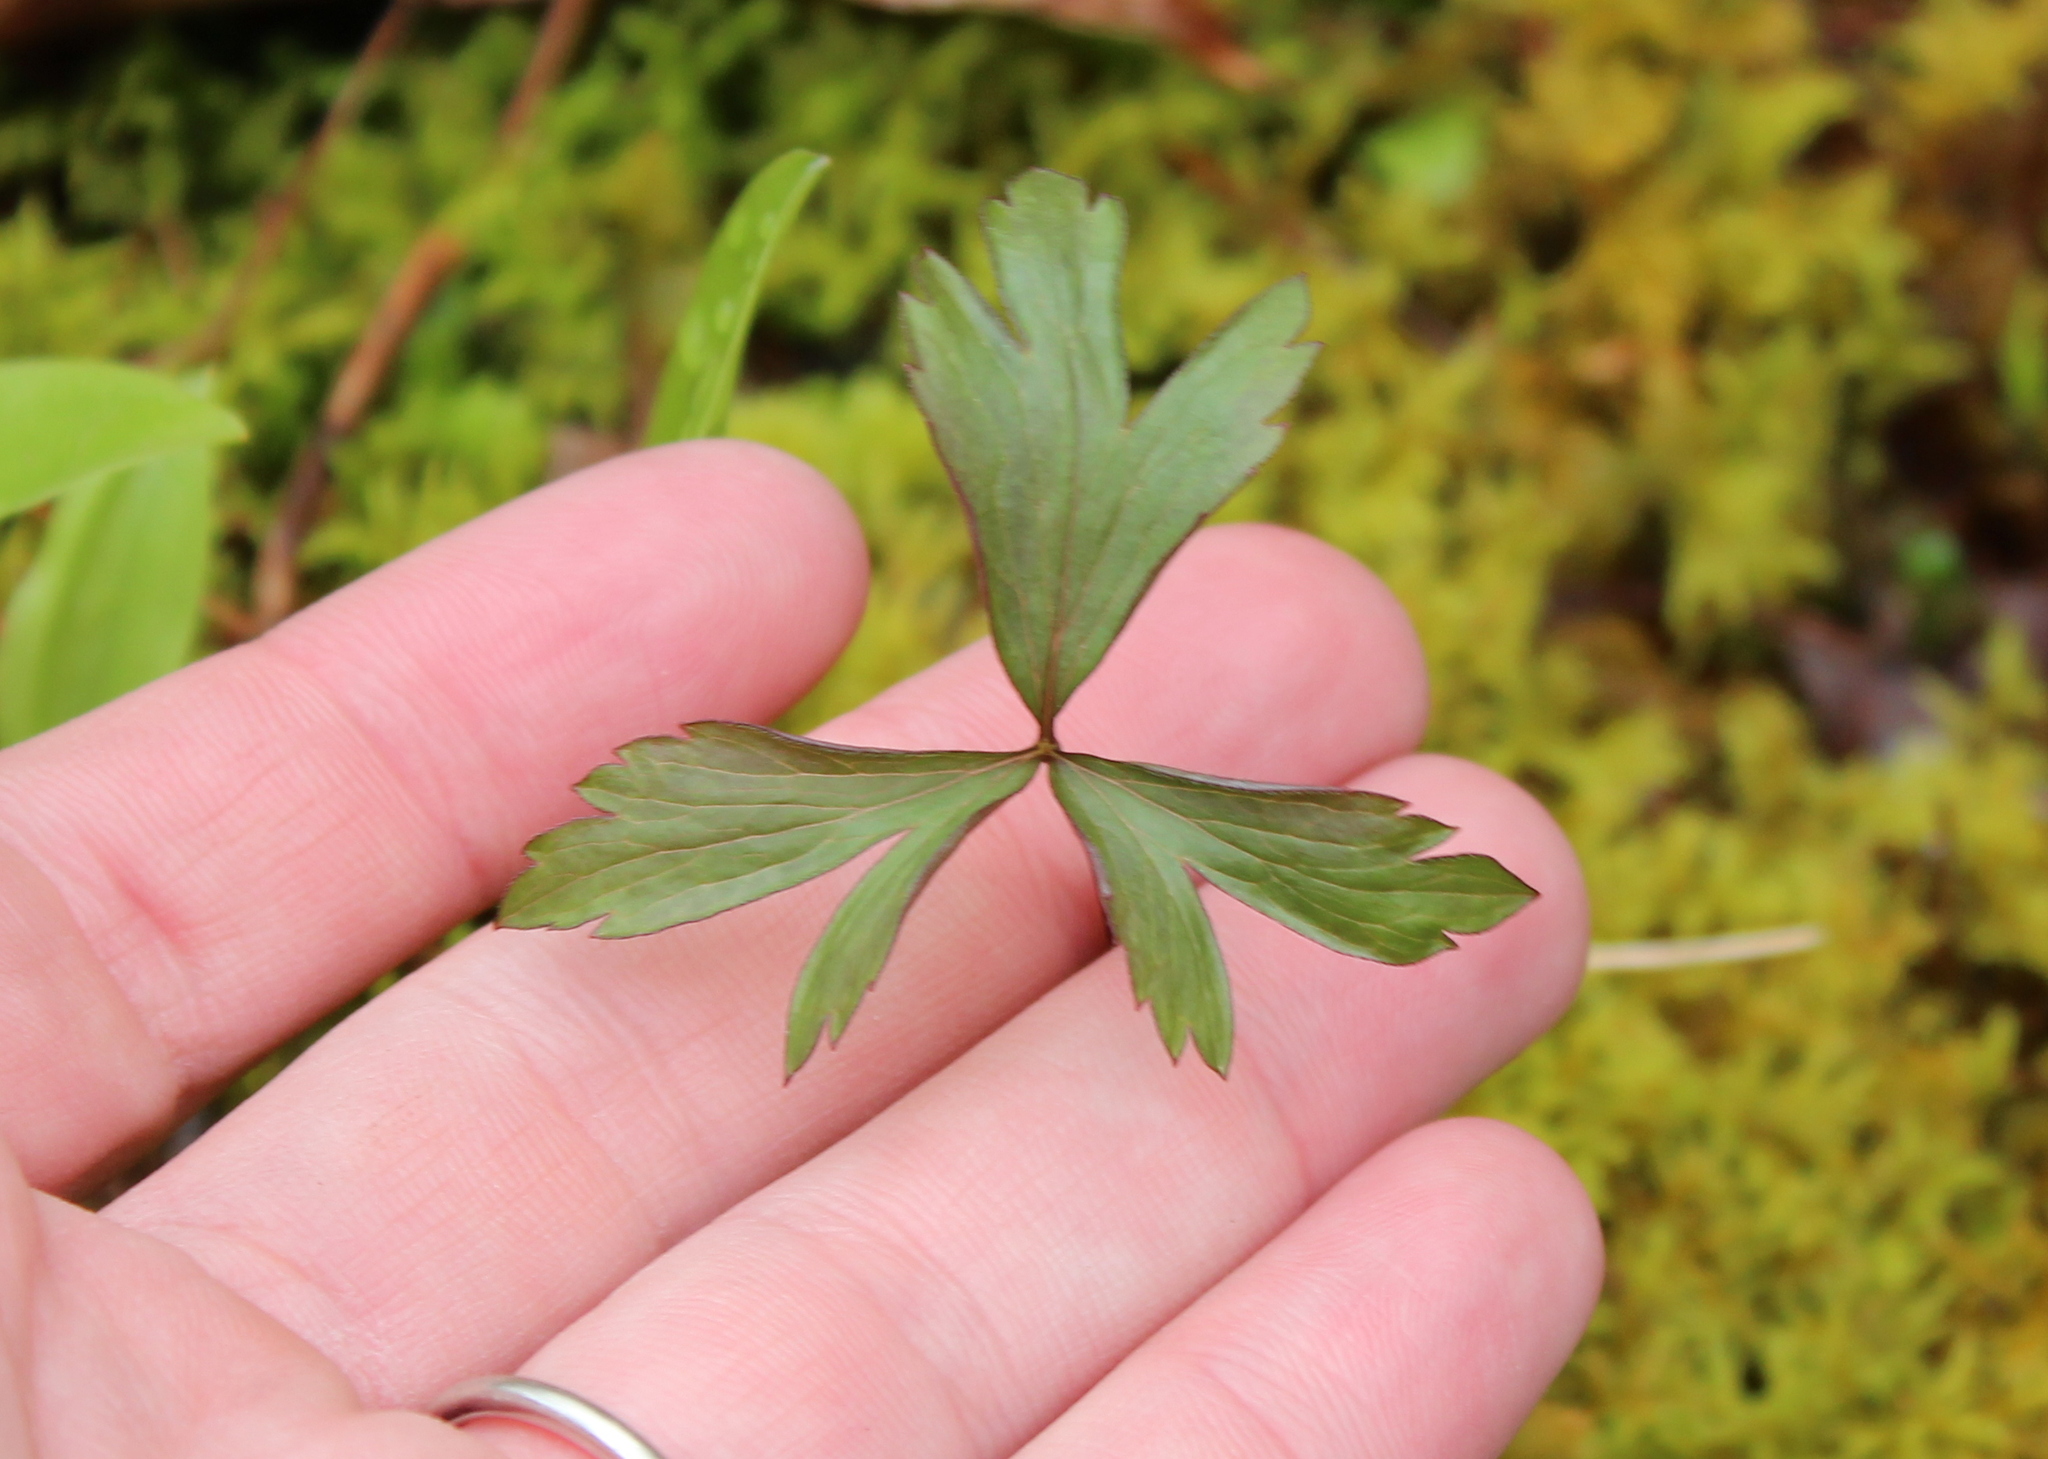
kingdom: Plantae
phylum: Tracheophyta
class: Magnoliopsida
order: Ranunculales
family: Ranunculaceae
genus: Anemone
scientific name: Anemone quinquefolia
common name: Wood anemone
